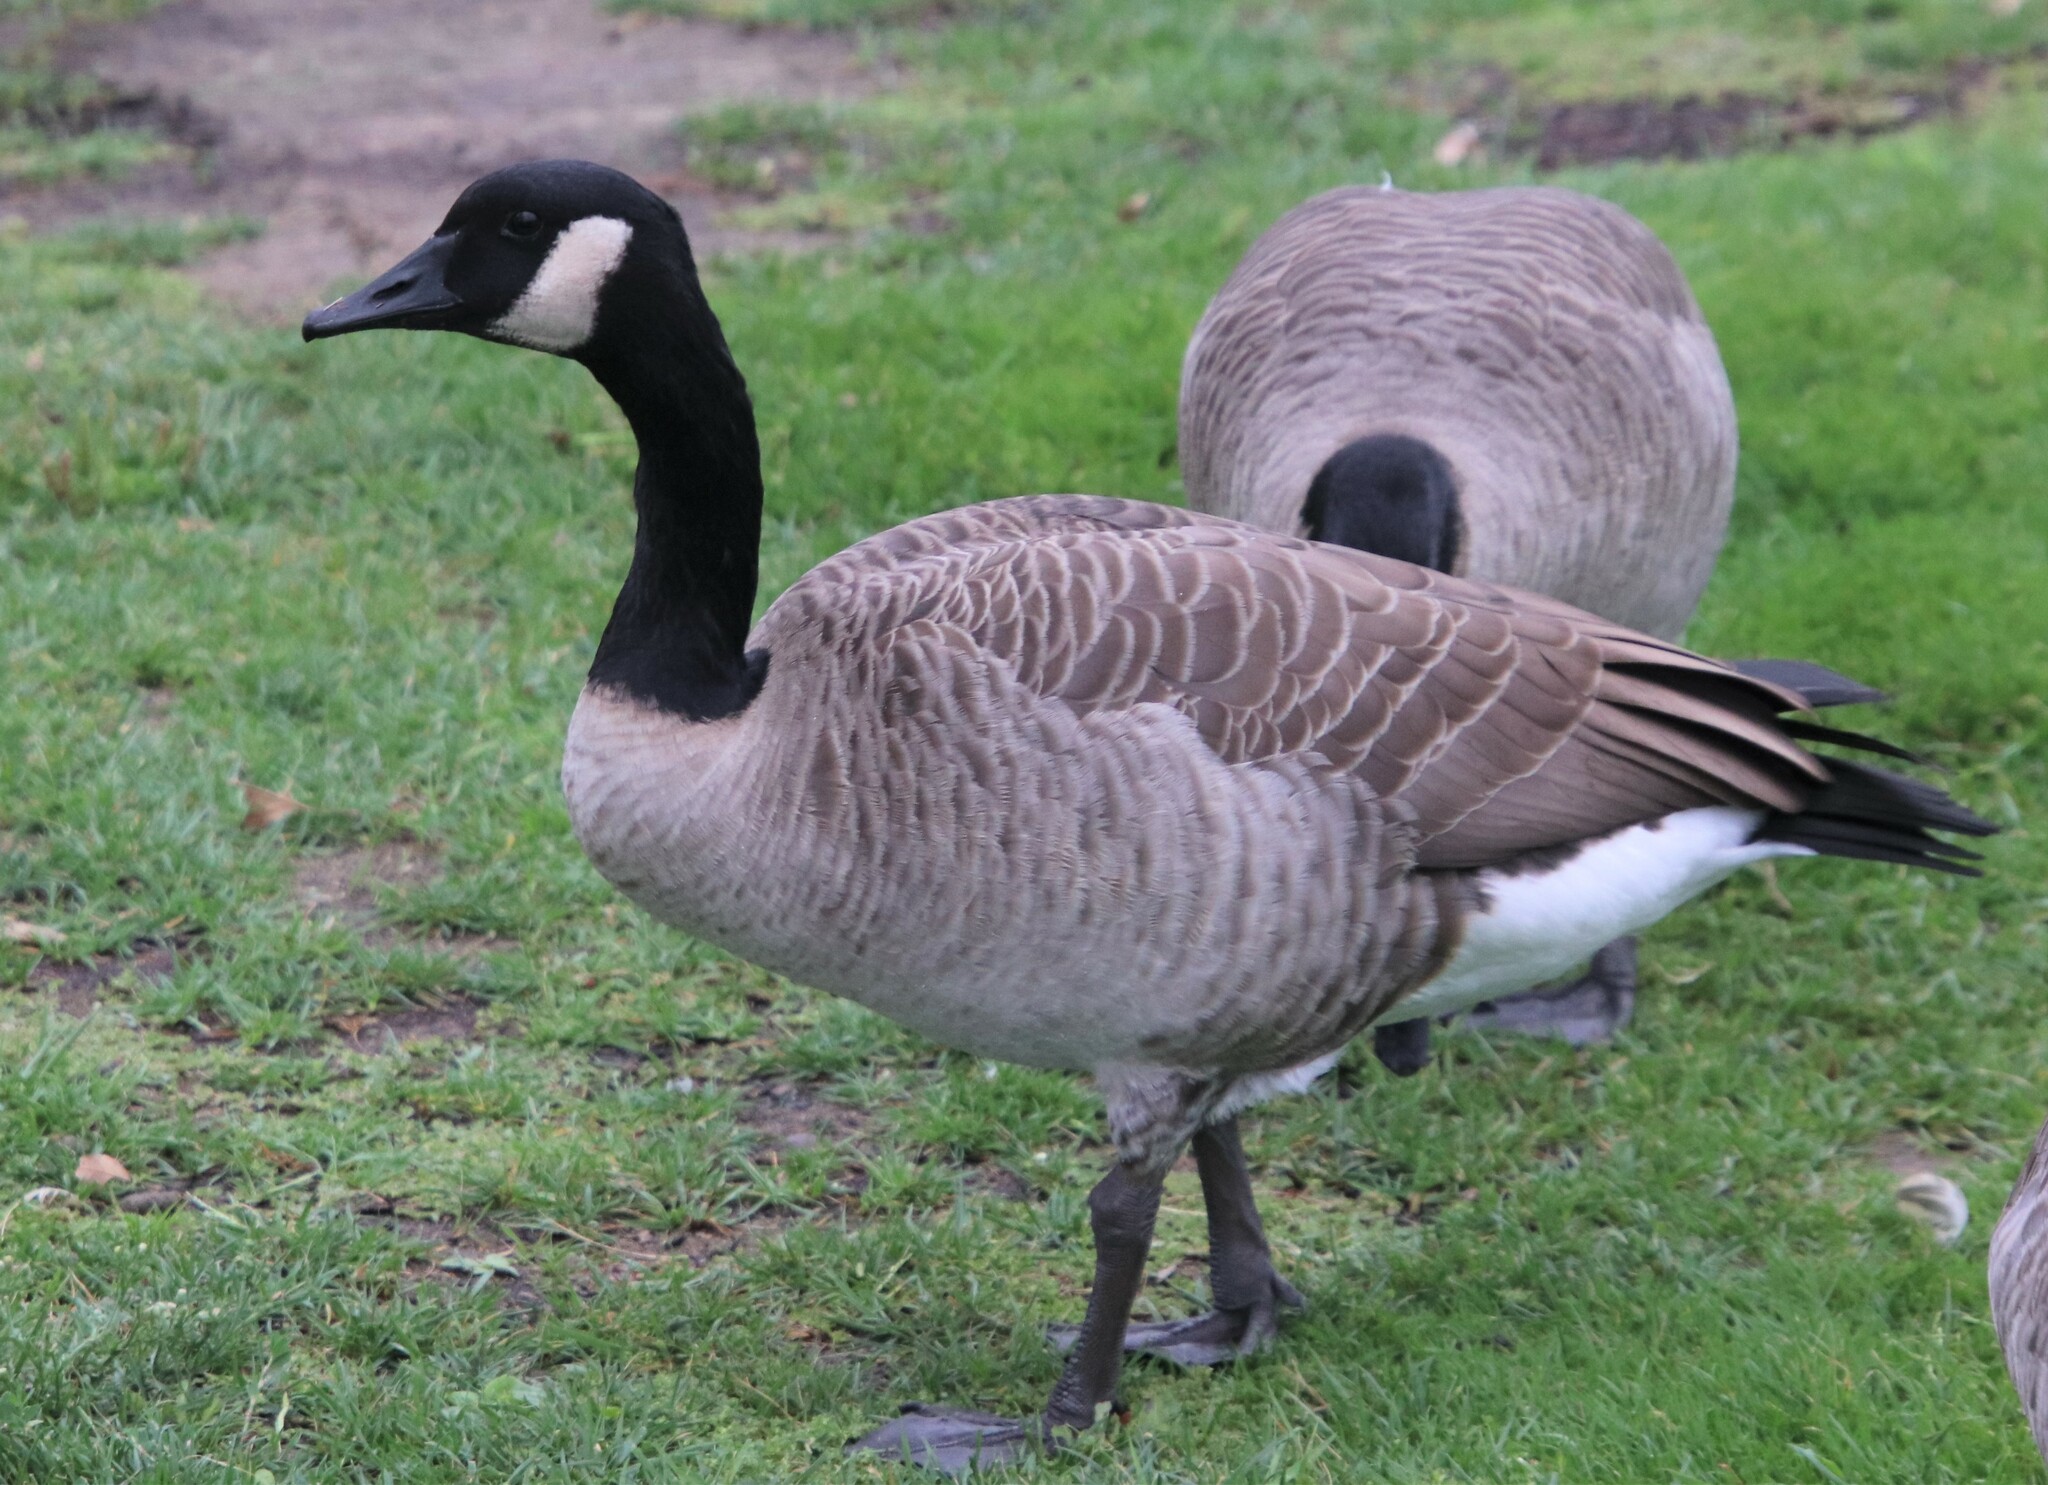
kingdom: Animalia
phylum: Chordata
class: Aves
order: Anseriformes
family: Anatidae
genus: Branta
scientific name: Branta canadensis
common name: Canada goose
